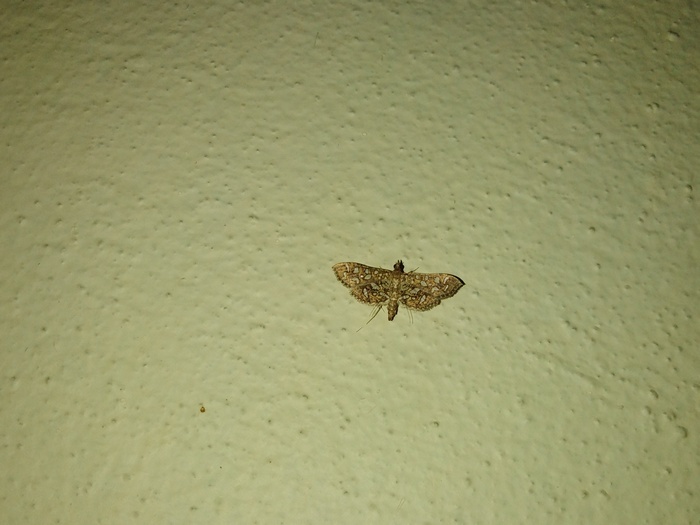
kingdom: Animalia
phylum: Arthropoda
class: Insecta
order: Lepidoptera
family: Crambidae
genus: Nausinoe
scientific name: Nausinoe geometralis
